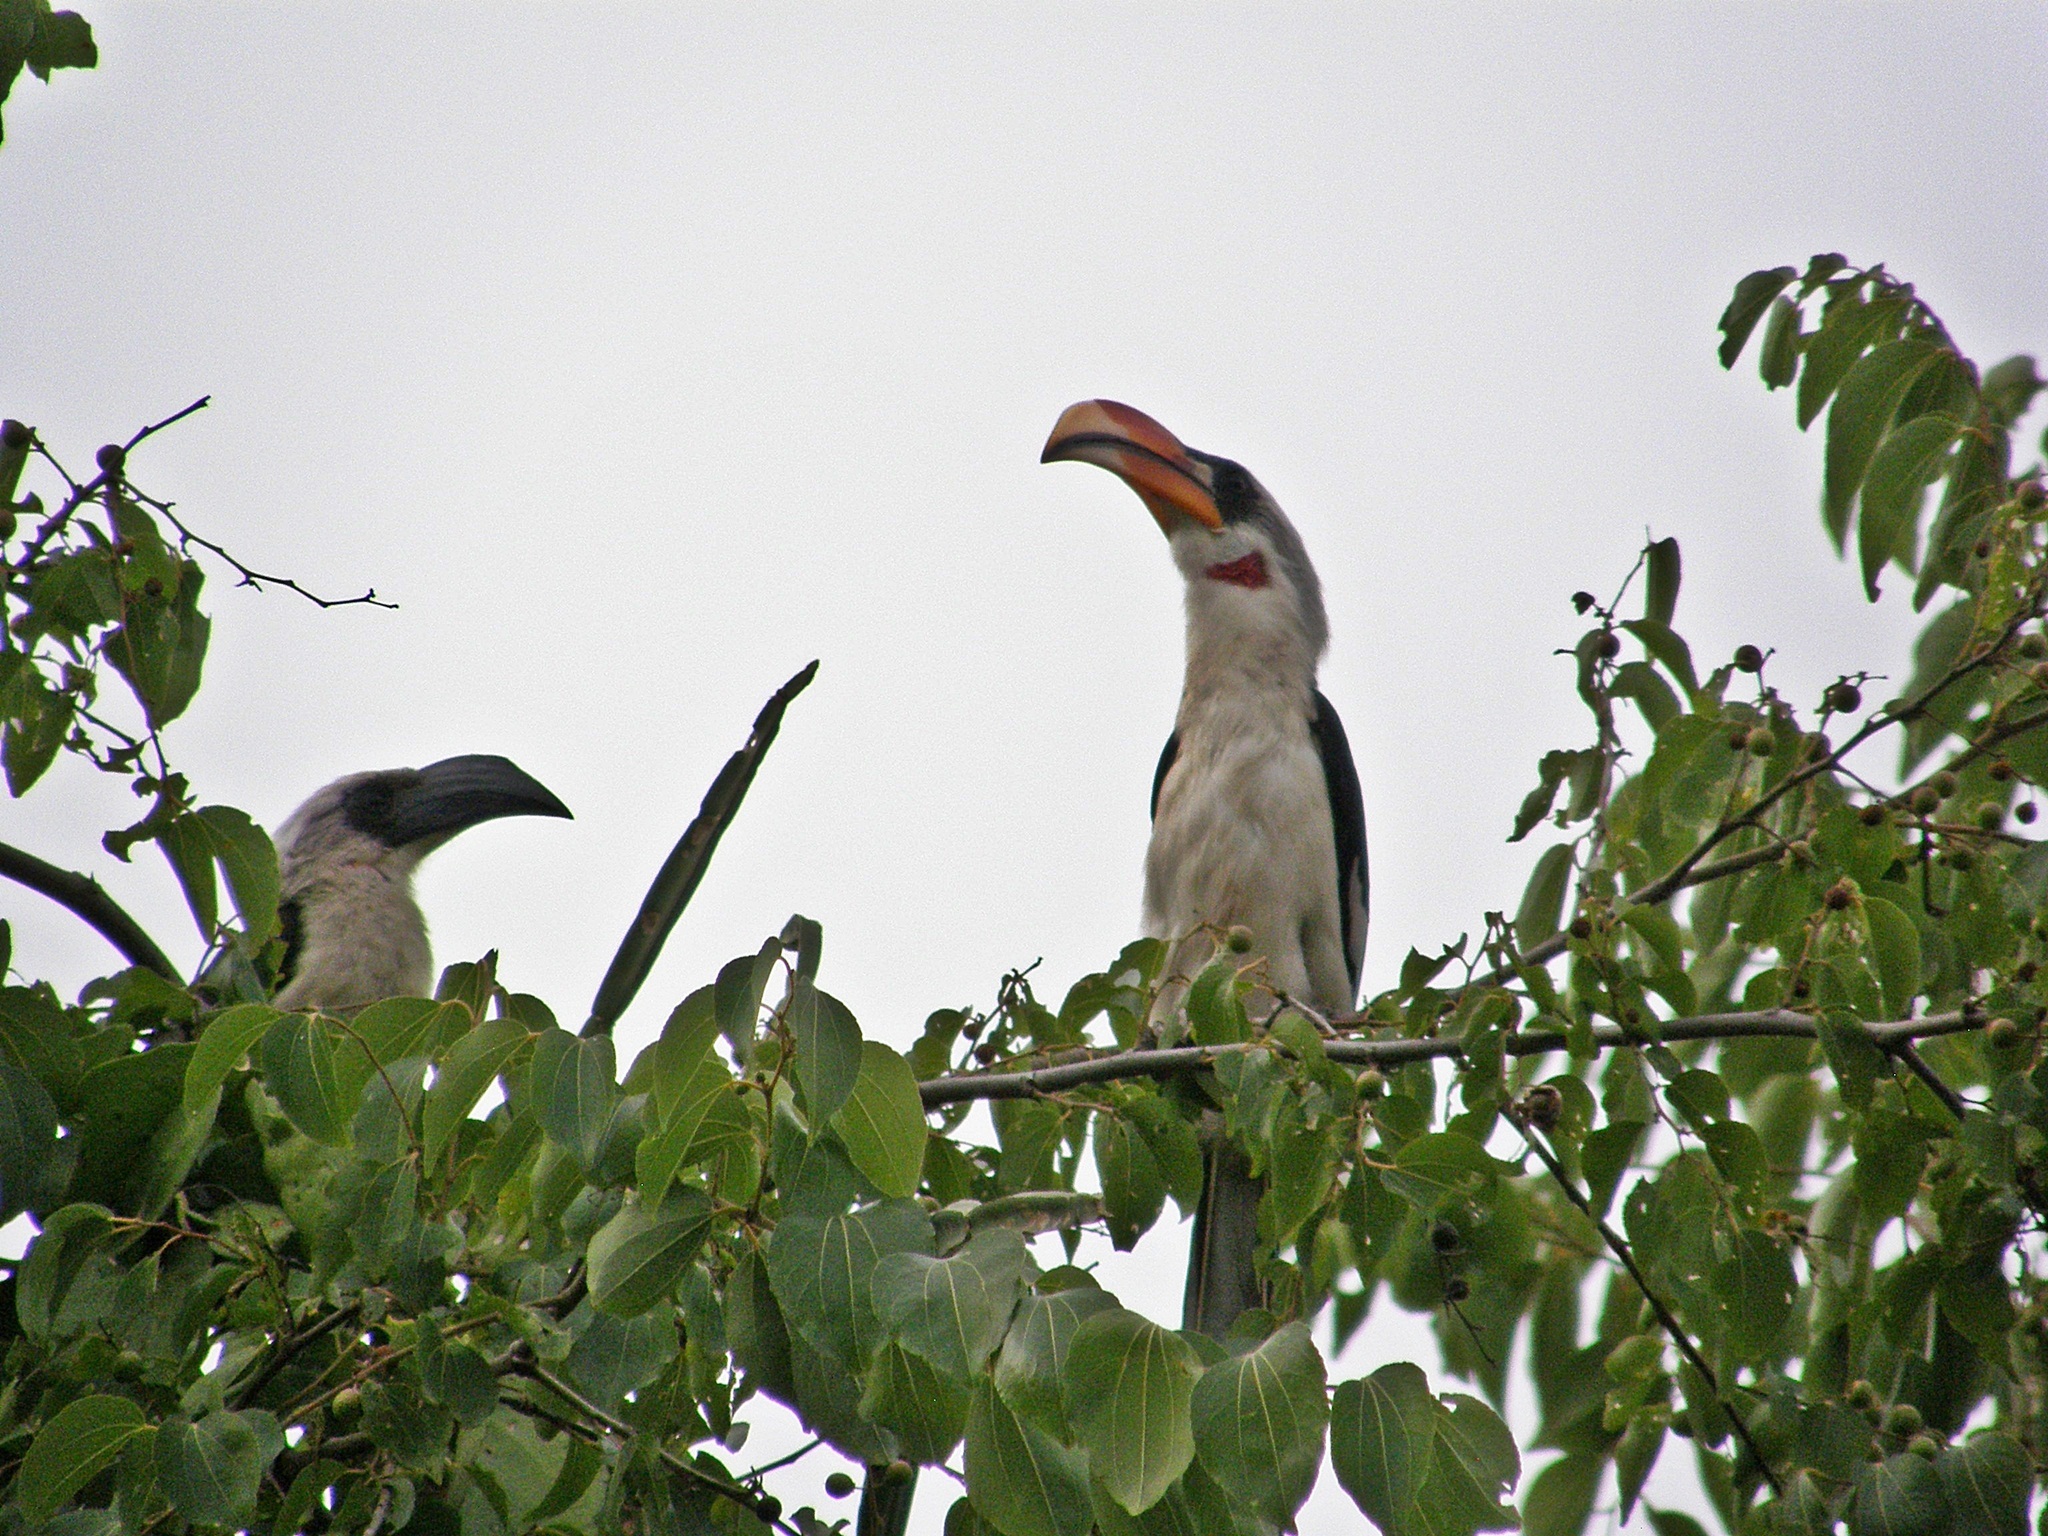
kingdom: Animalia
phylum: Chordata
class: Aves
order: Bucerotiformes
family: Bucerotidae
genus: Tockus
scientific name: Tockus deckeni
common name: Von der decken's hornbill
